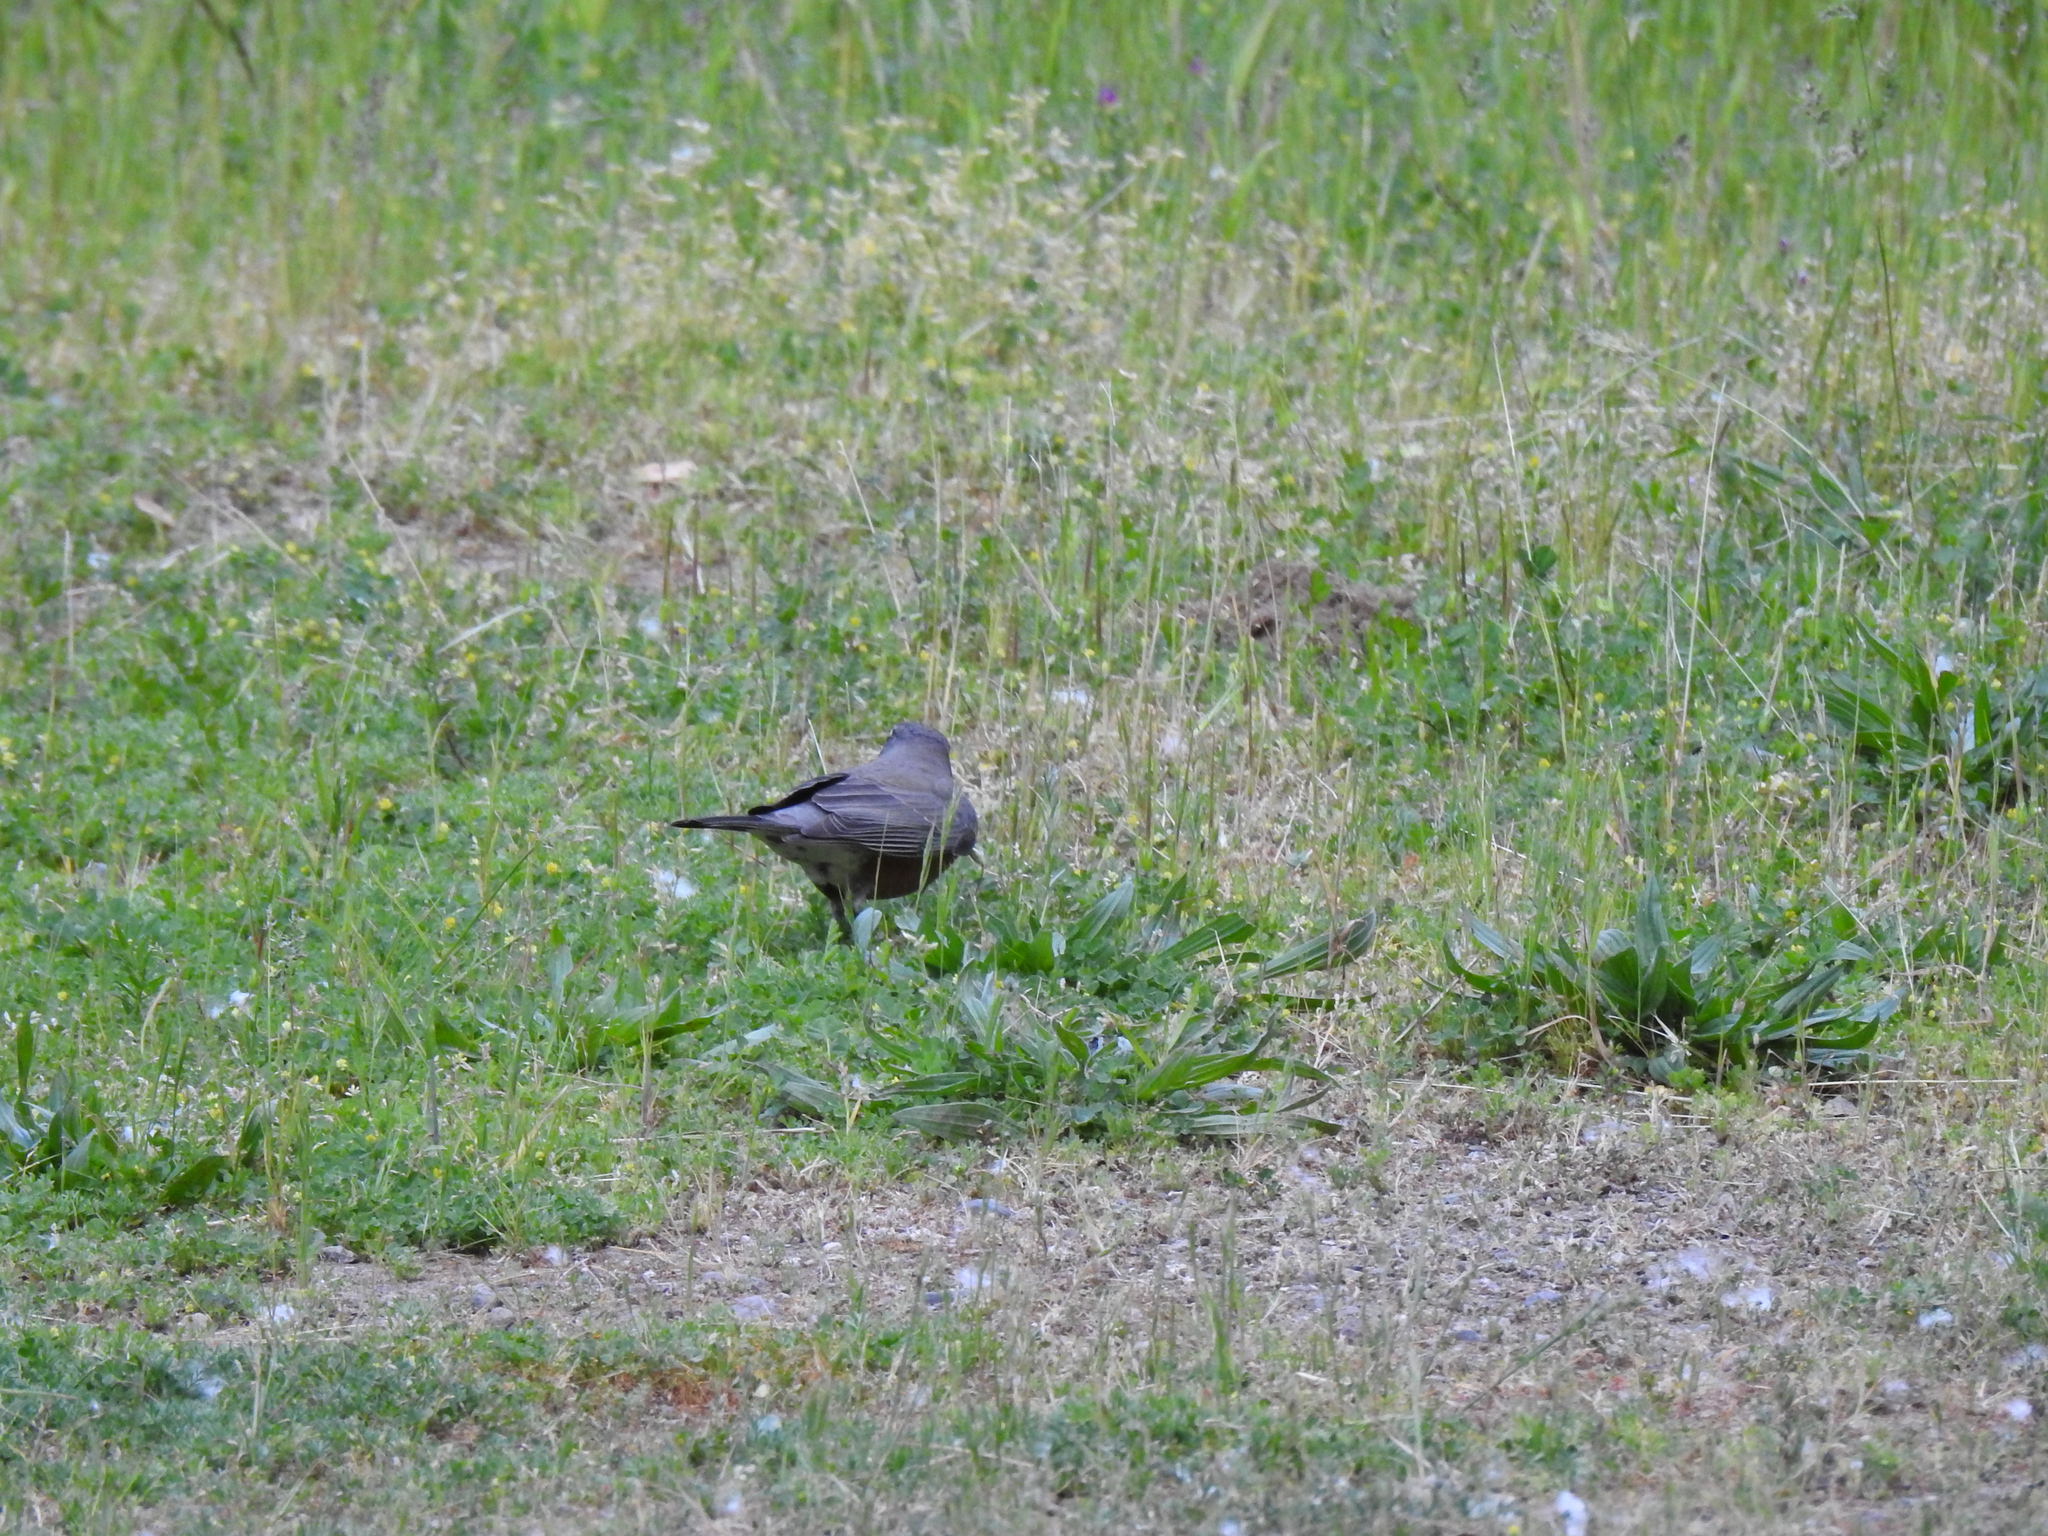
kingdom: Animalia
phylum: Chordata
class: Aves
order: Passeriformes
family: Turdidae
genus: Turdus
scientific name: Turdus migratorius
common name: American robin
